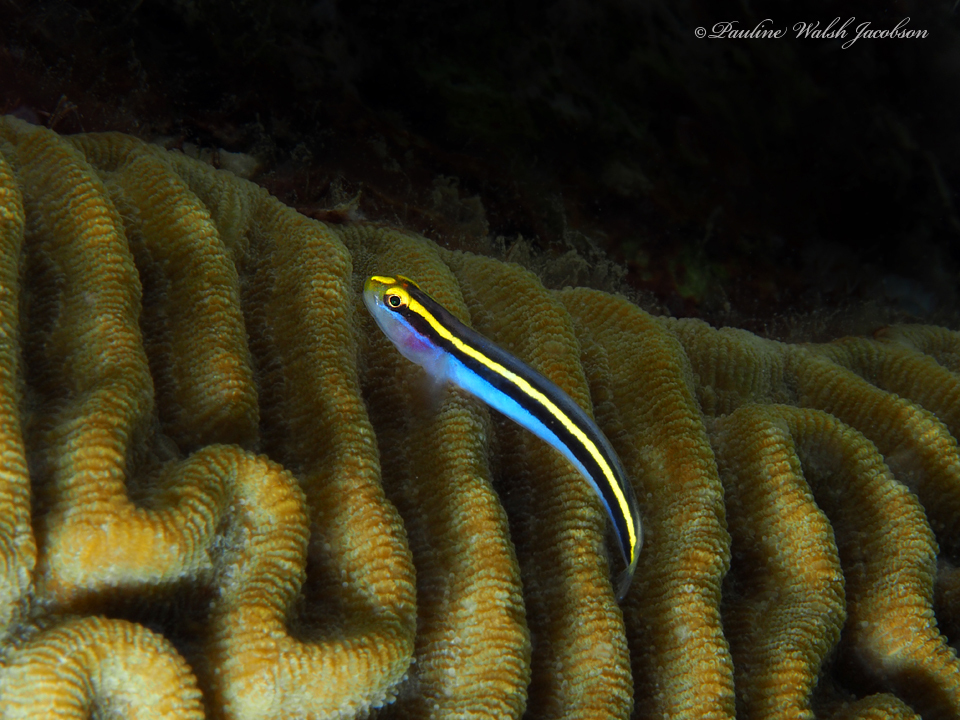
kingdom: Animalia
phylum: Chordata
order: Perciformes
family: Gobiidae
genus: Elacatinus
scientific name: Elacatinus randalli
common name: Yellownose goby
